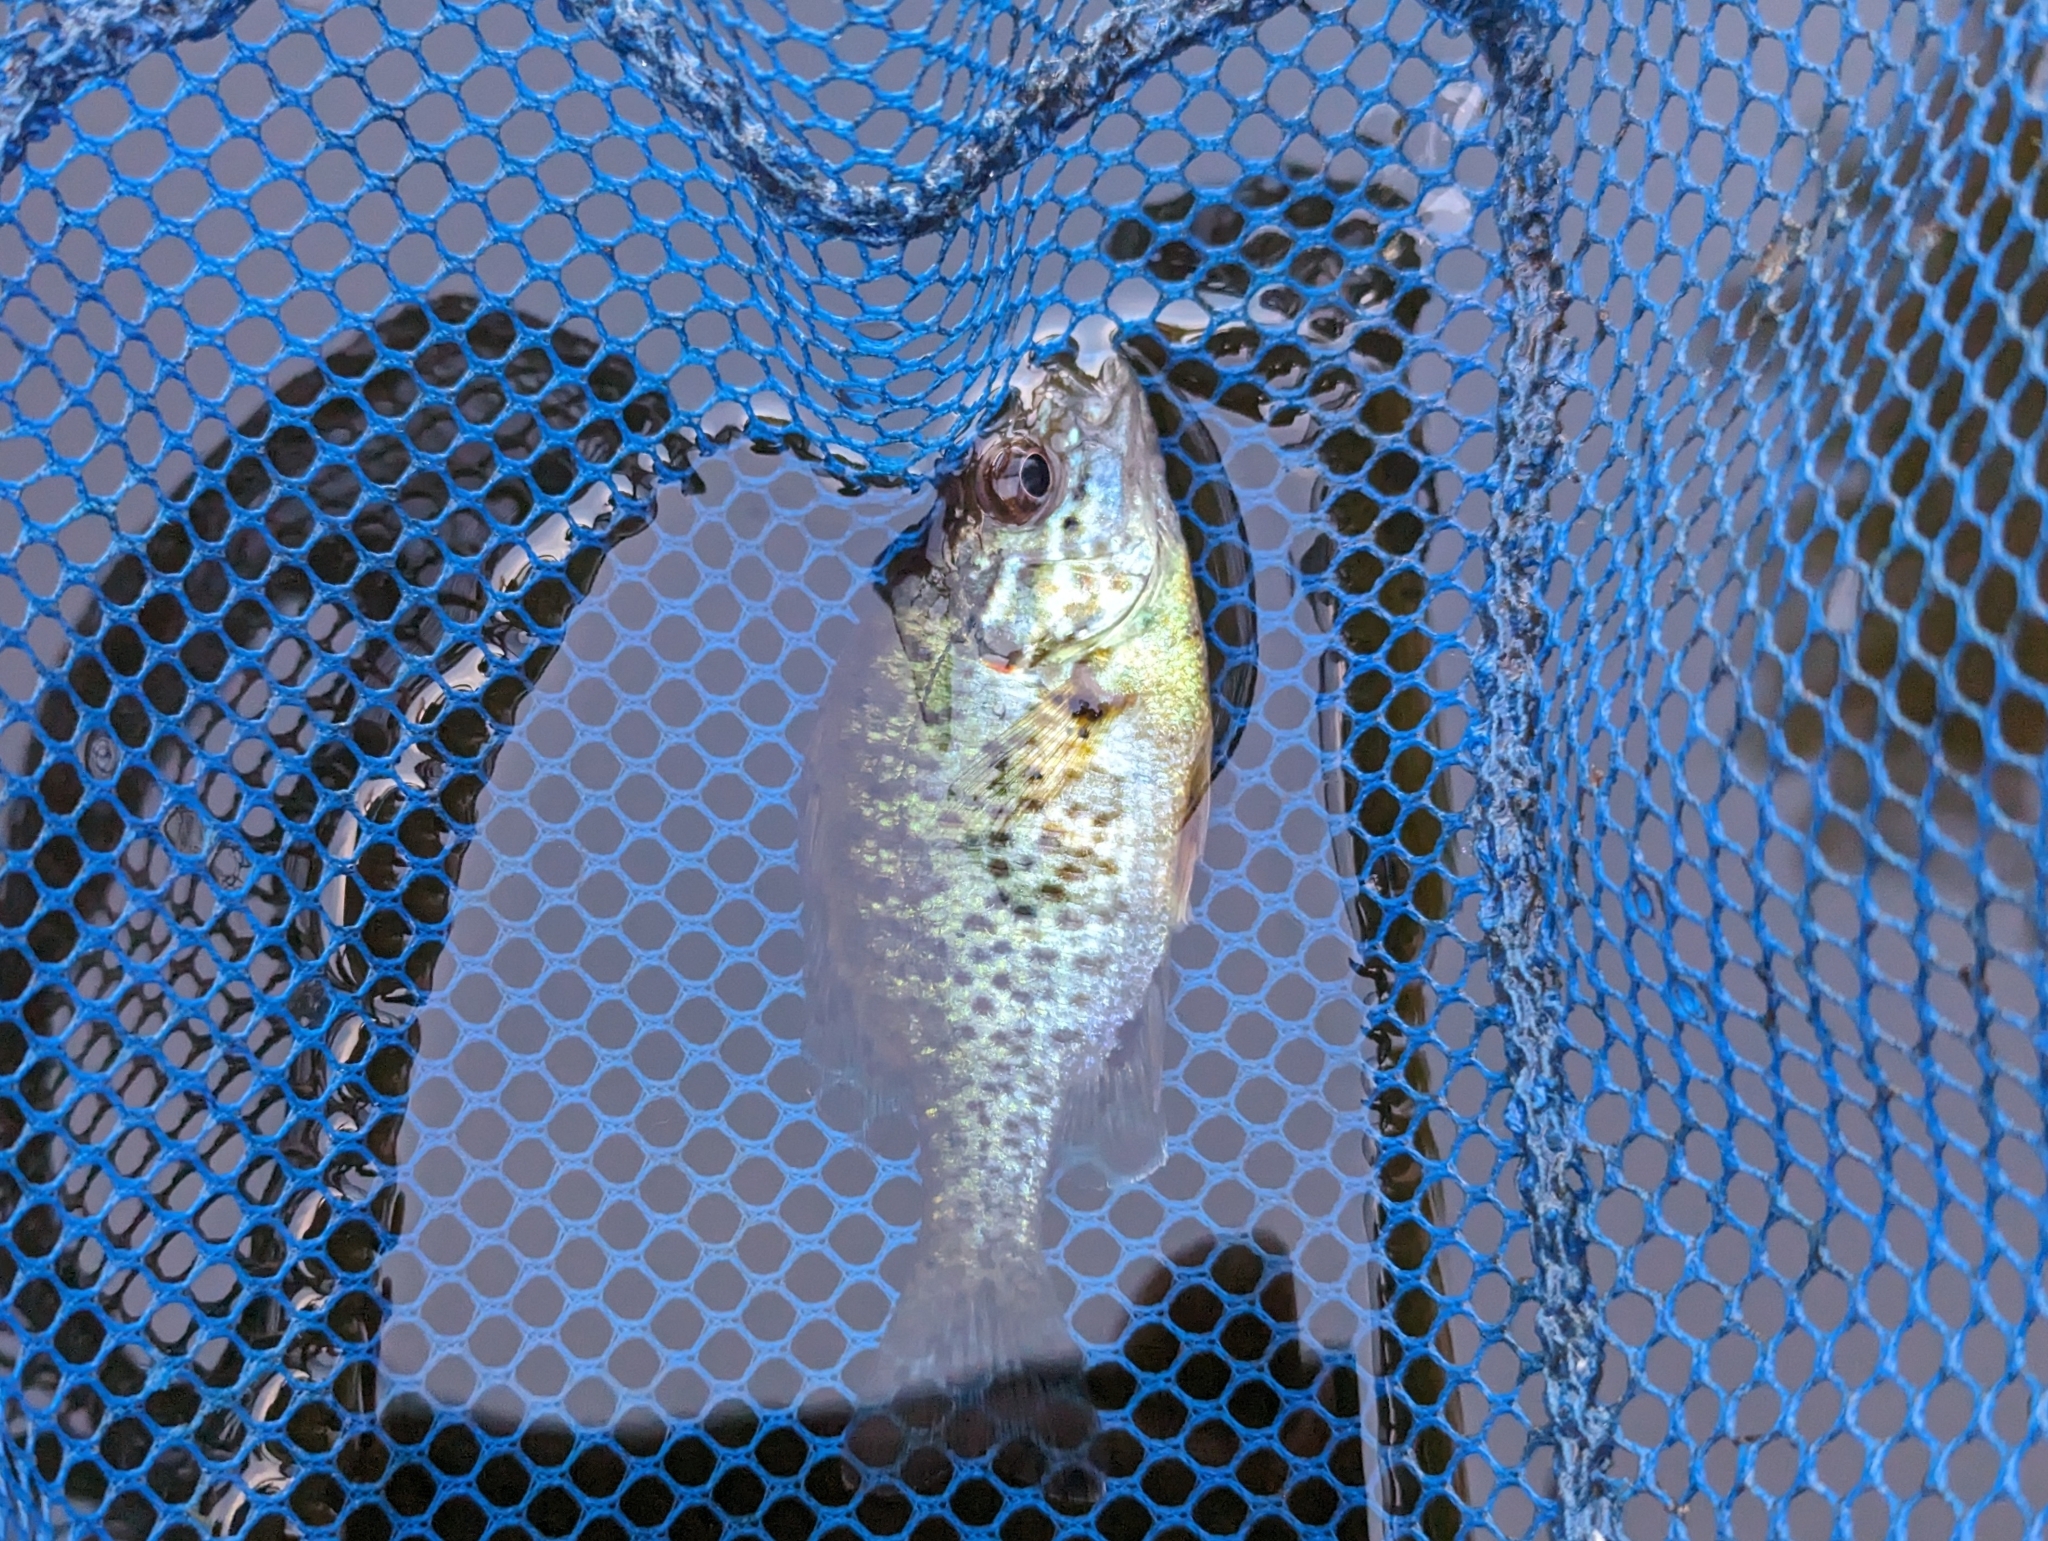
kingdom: Animalia
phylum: Chordata
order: Perciformes
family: Centrarchidae
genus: Lepomis
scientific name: Lepomis gibbosus
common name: Pumpkinseed
